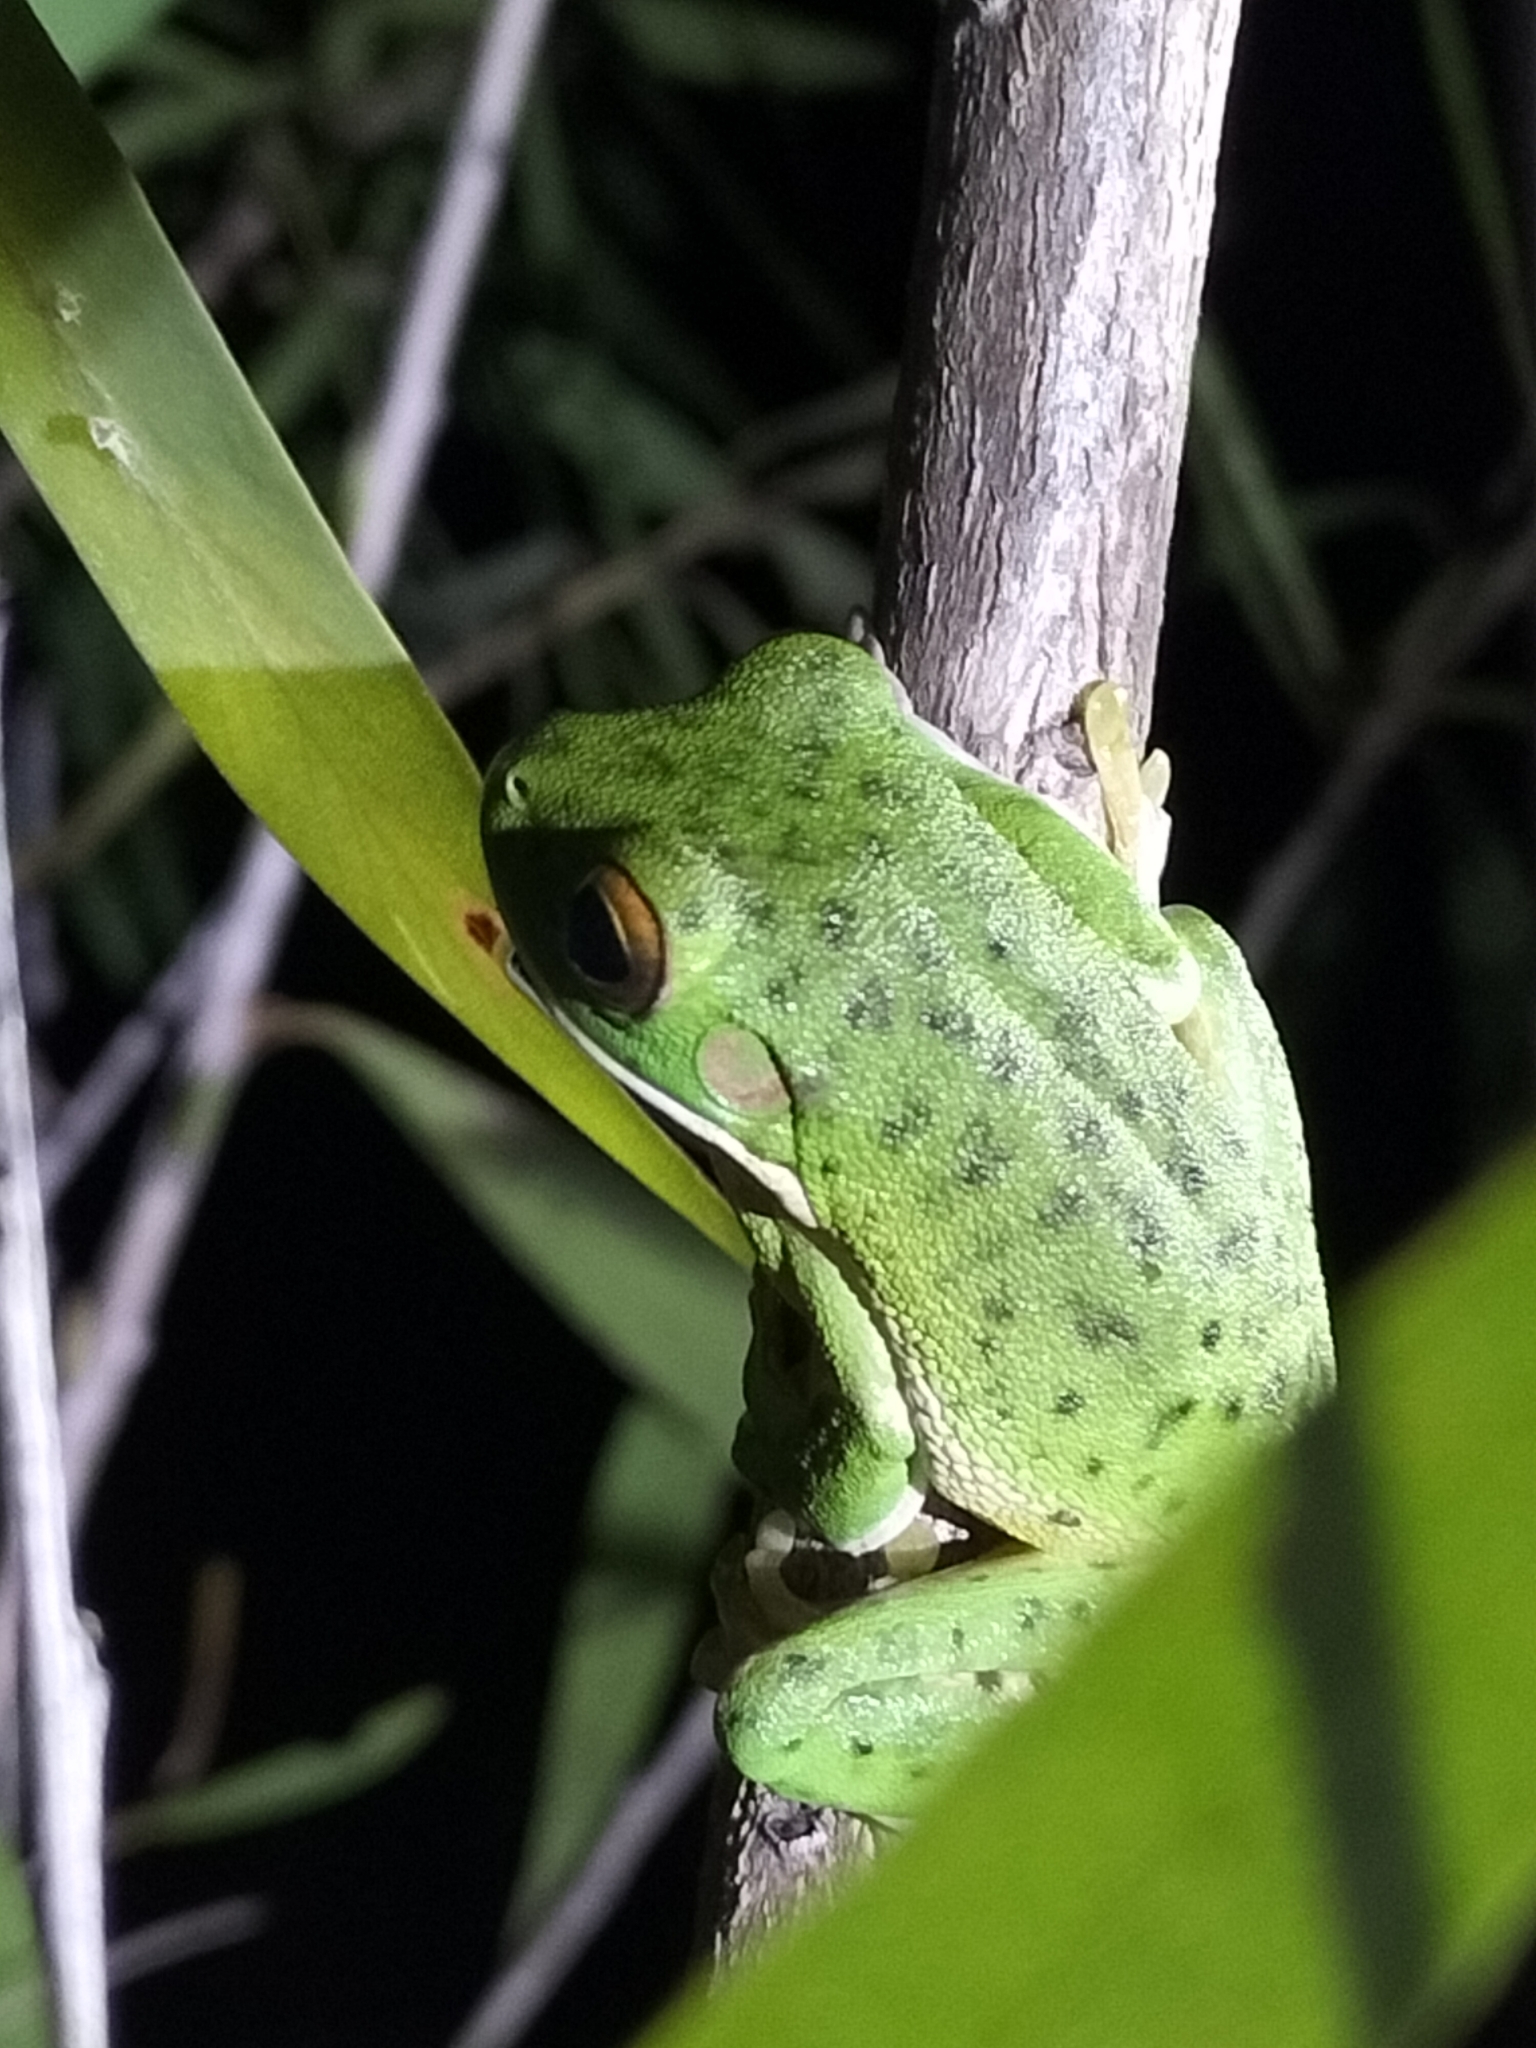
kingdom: Animalia
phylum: Chordata
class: Amphibia
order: Anura
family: Pelodryadidae
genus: Nyctimystes
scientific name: Nyctimystes infrafrenatus
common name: Australian giant treefrog
